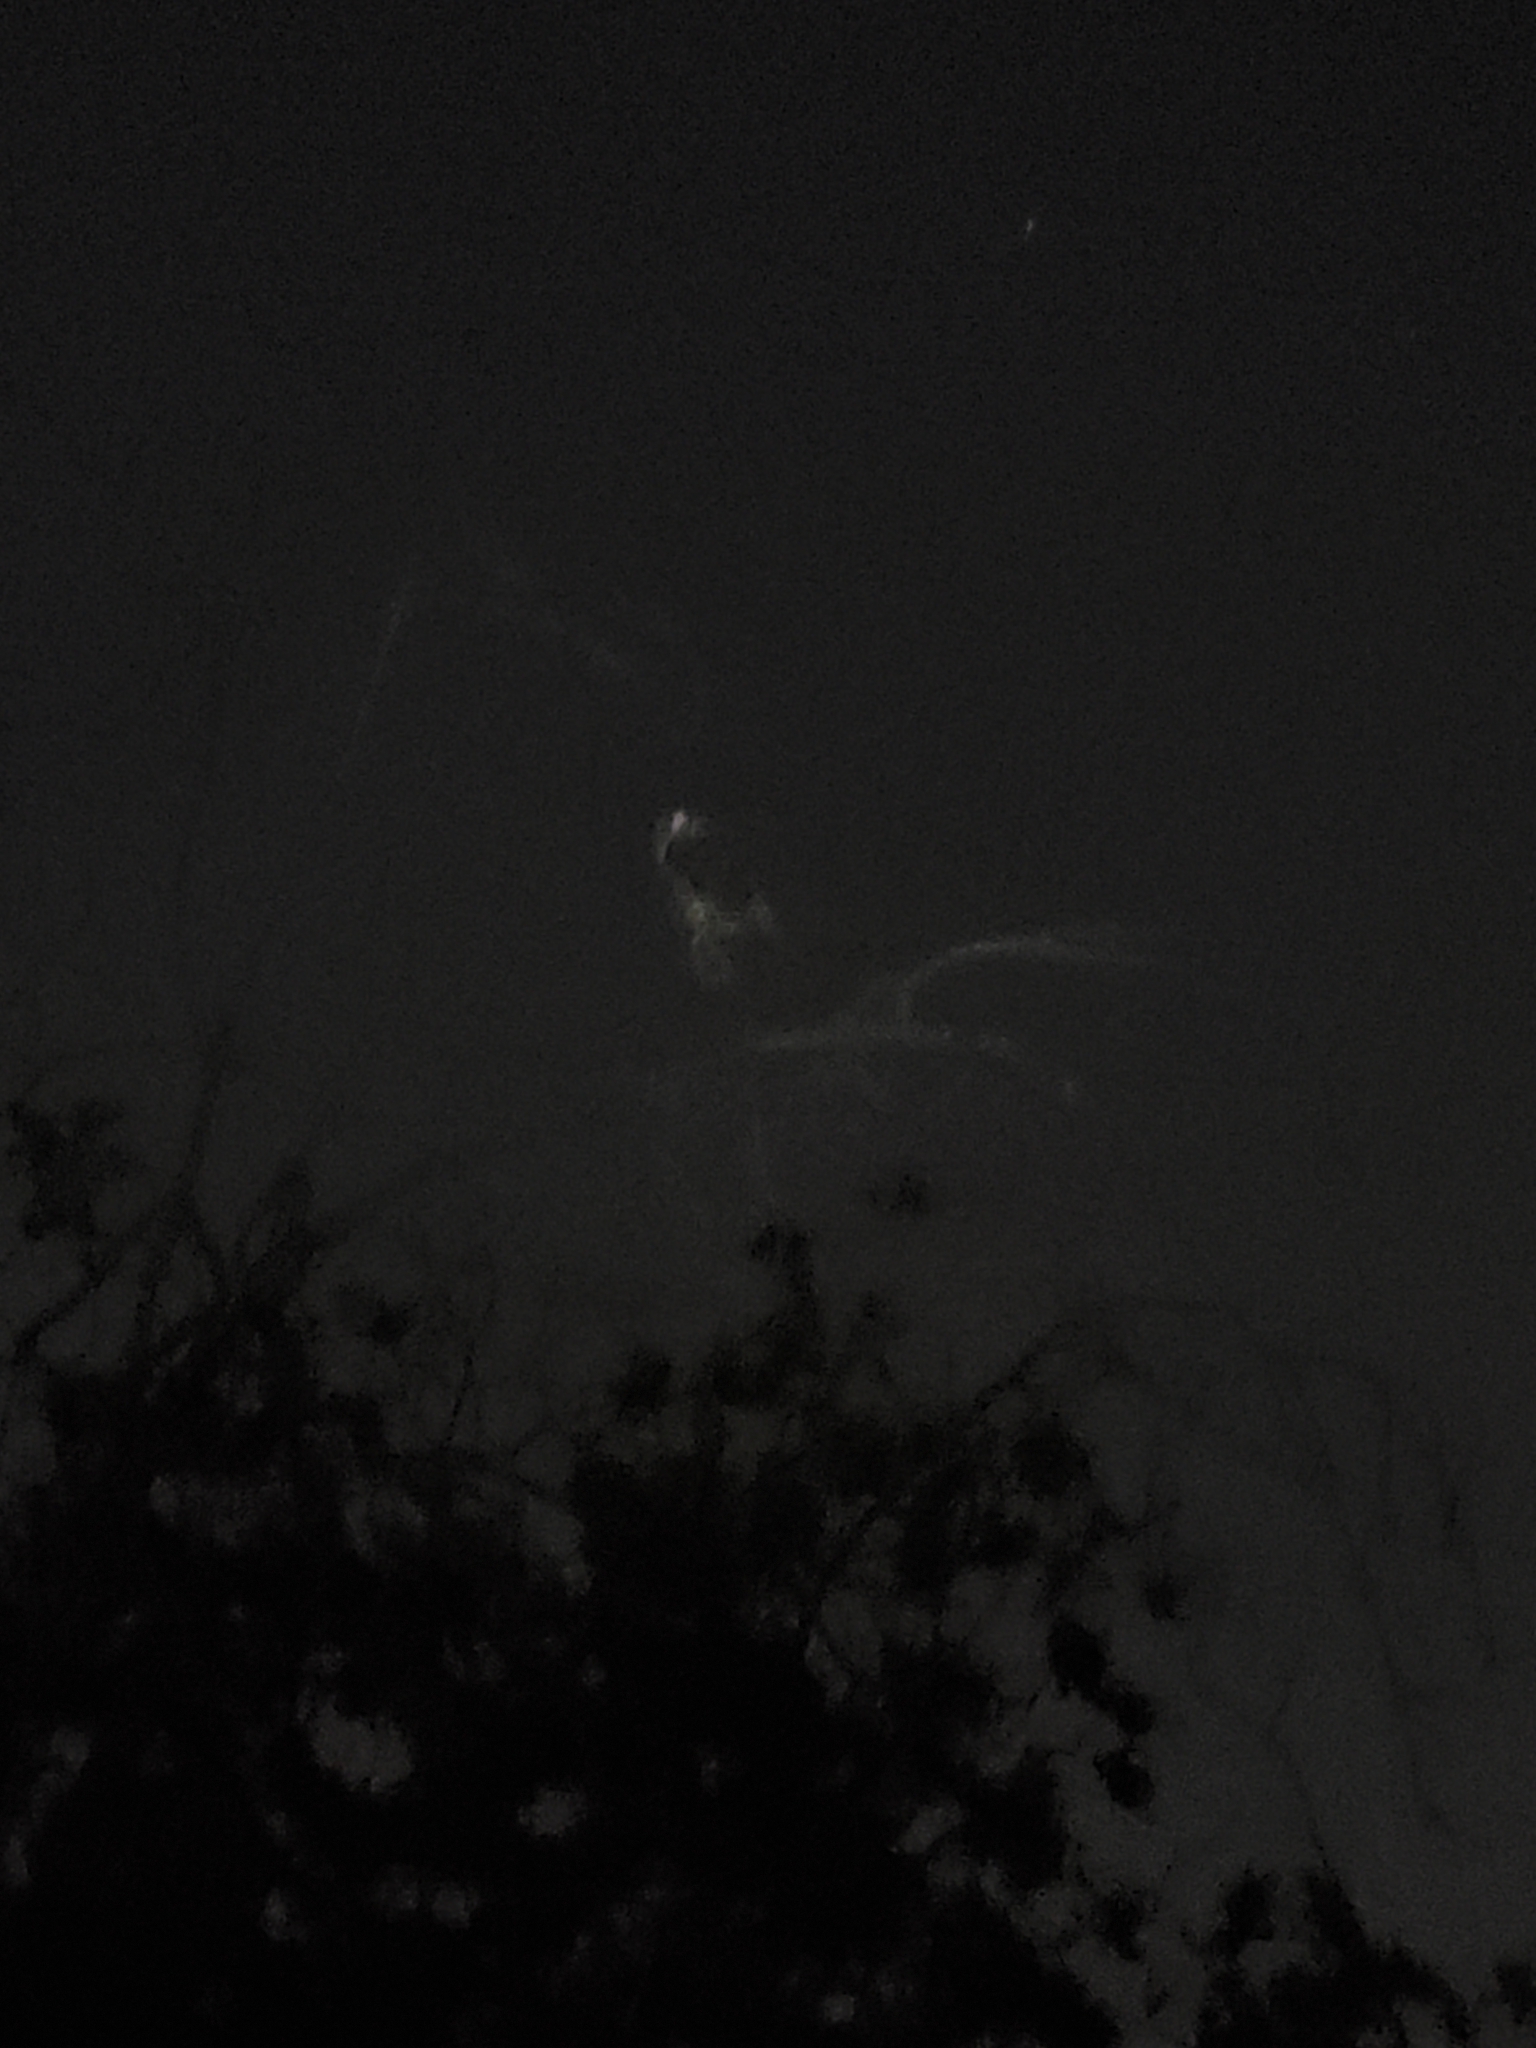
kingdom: Animalia
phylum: Chordata
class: Aves
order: Strigiformes
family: Strigidae
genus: Bubo
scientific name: Bubo virginianus
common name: Great horned owl
